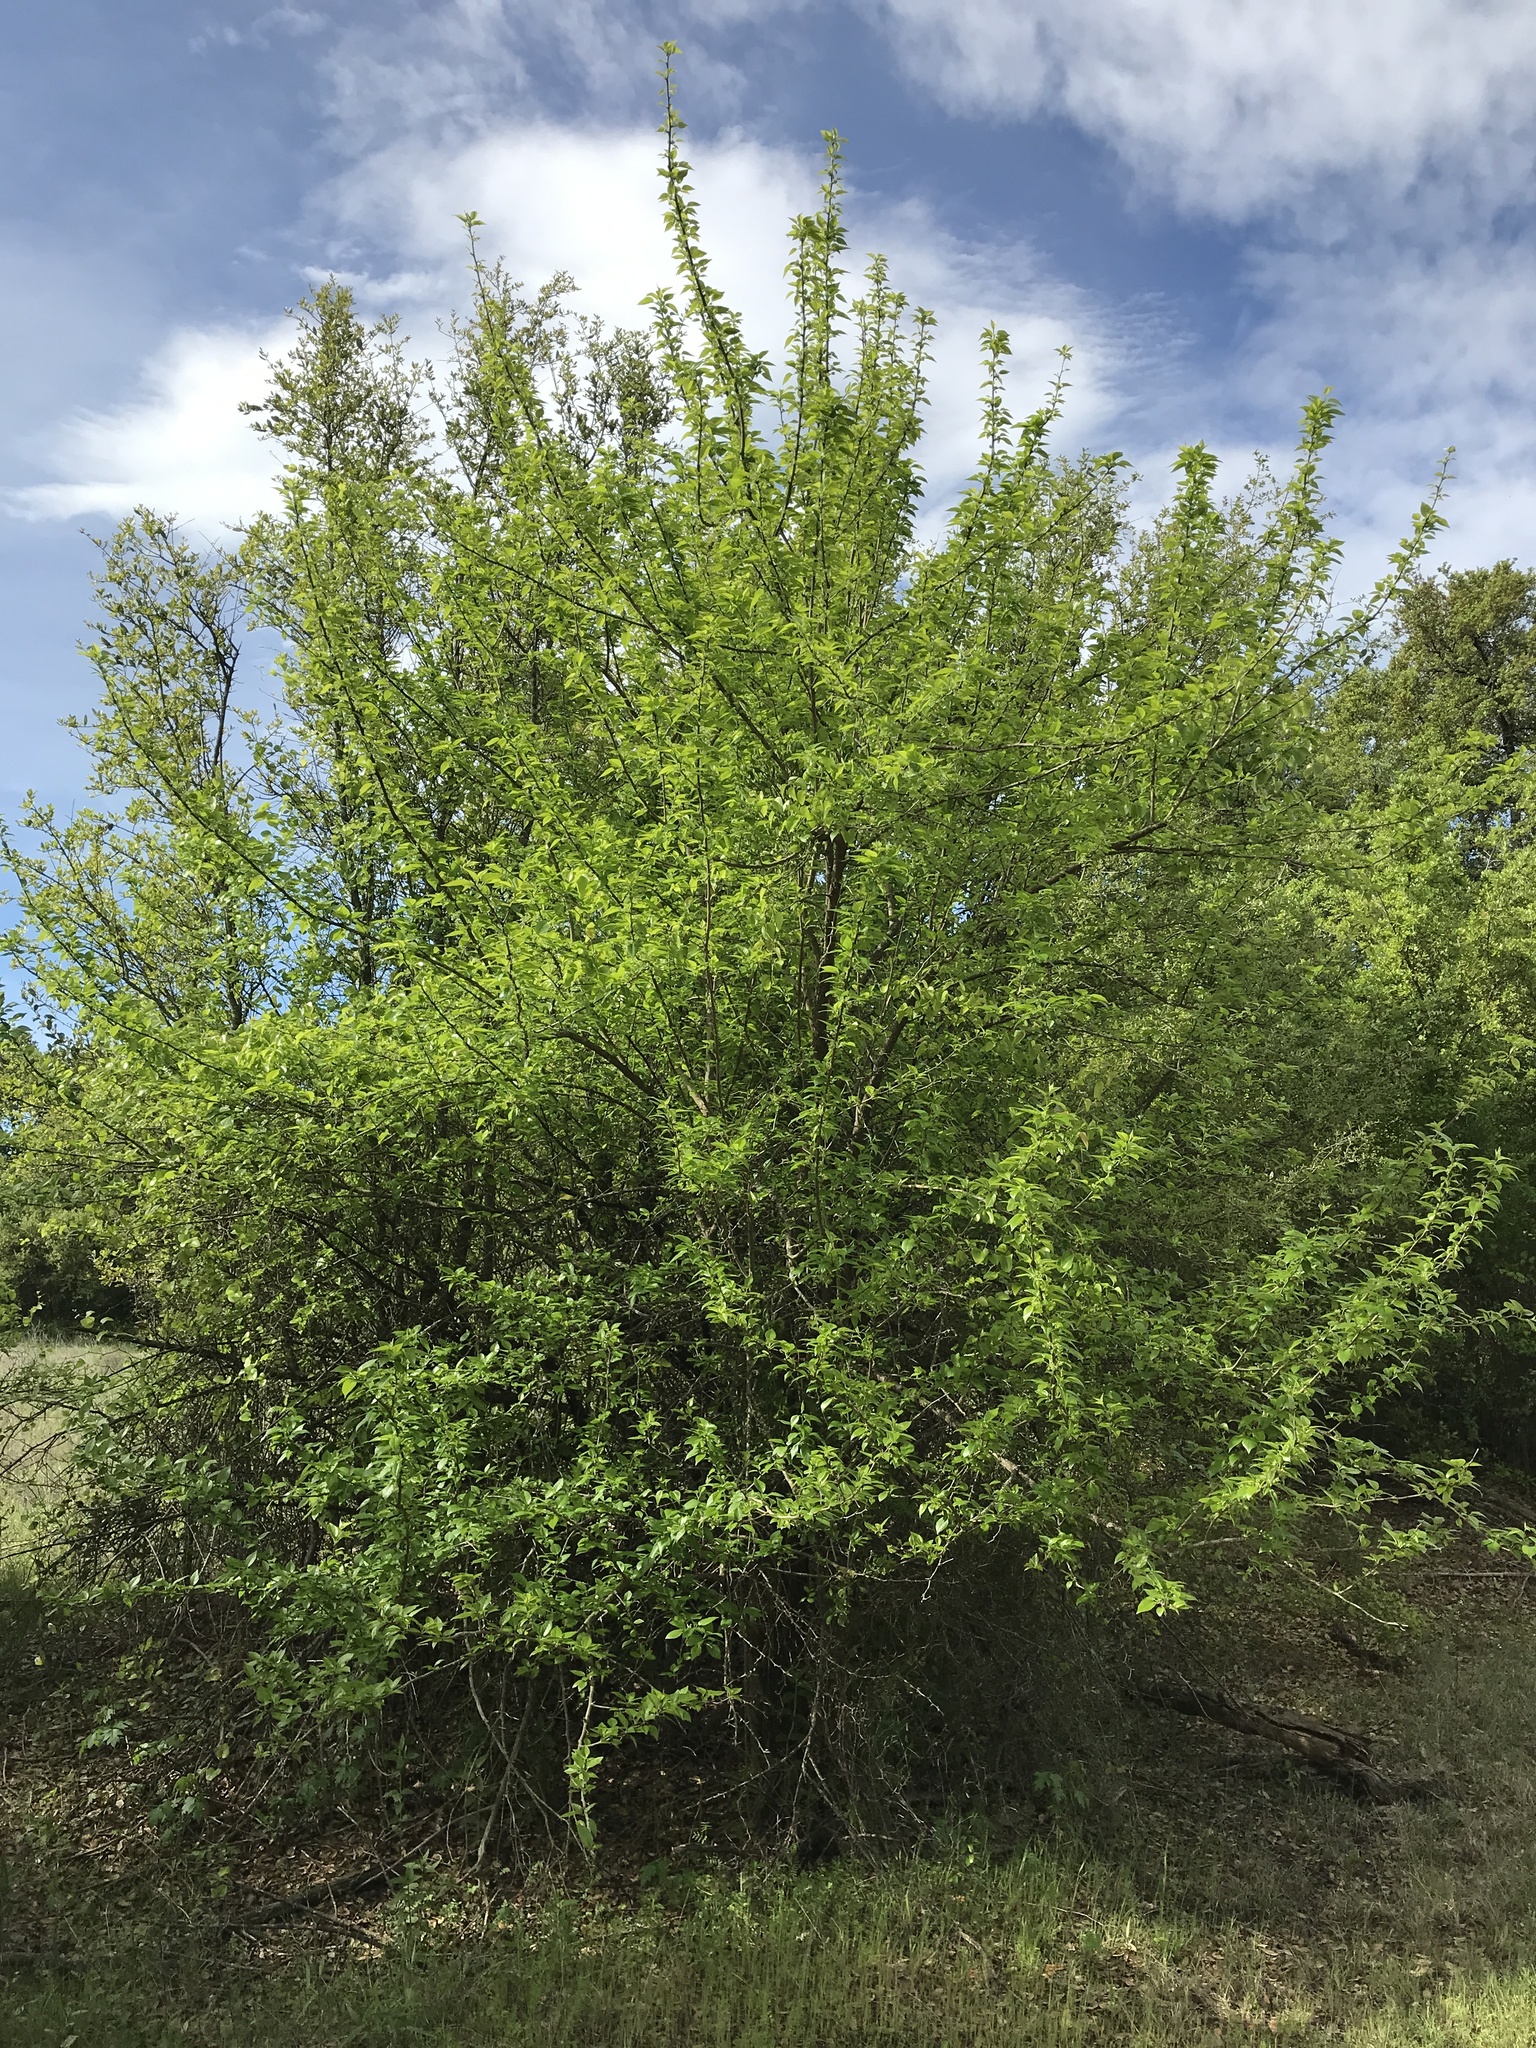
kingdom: Plantae
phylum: Tracheophyta
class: Magnoliopsida
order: Rosales
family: Moraceae
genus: Maclura
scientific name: Maclura pomifera
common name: Osage-orange
